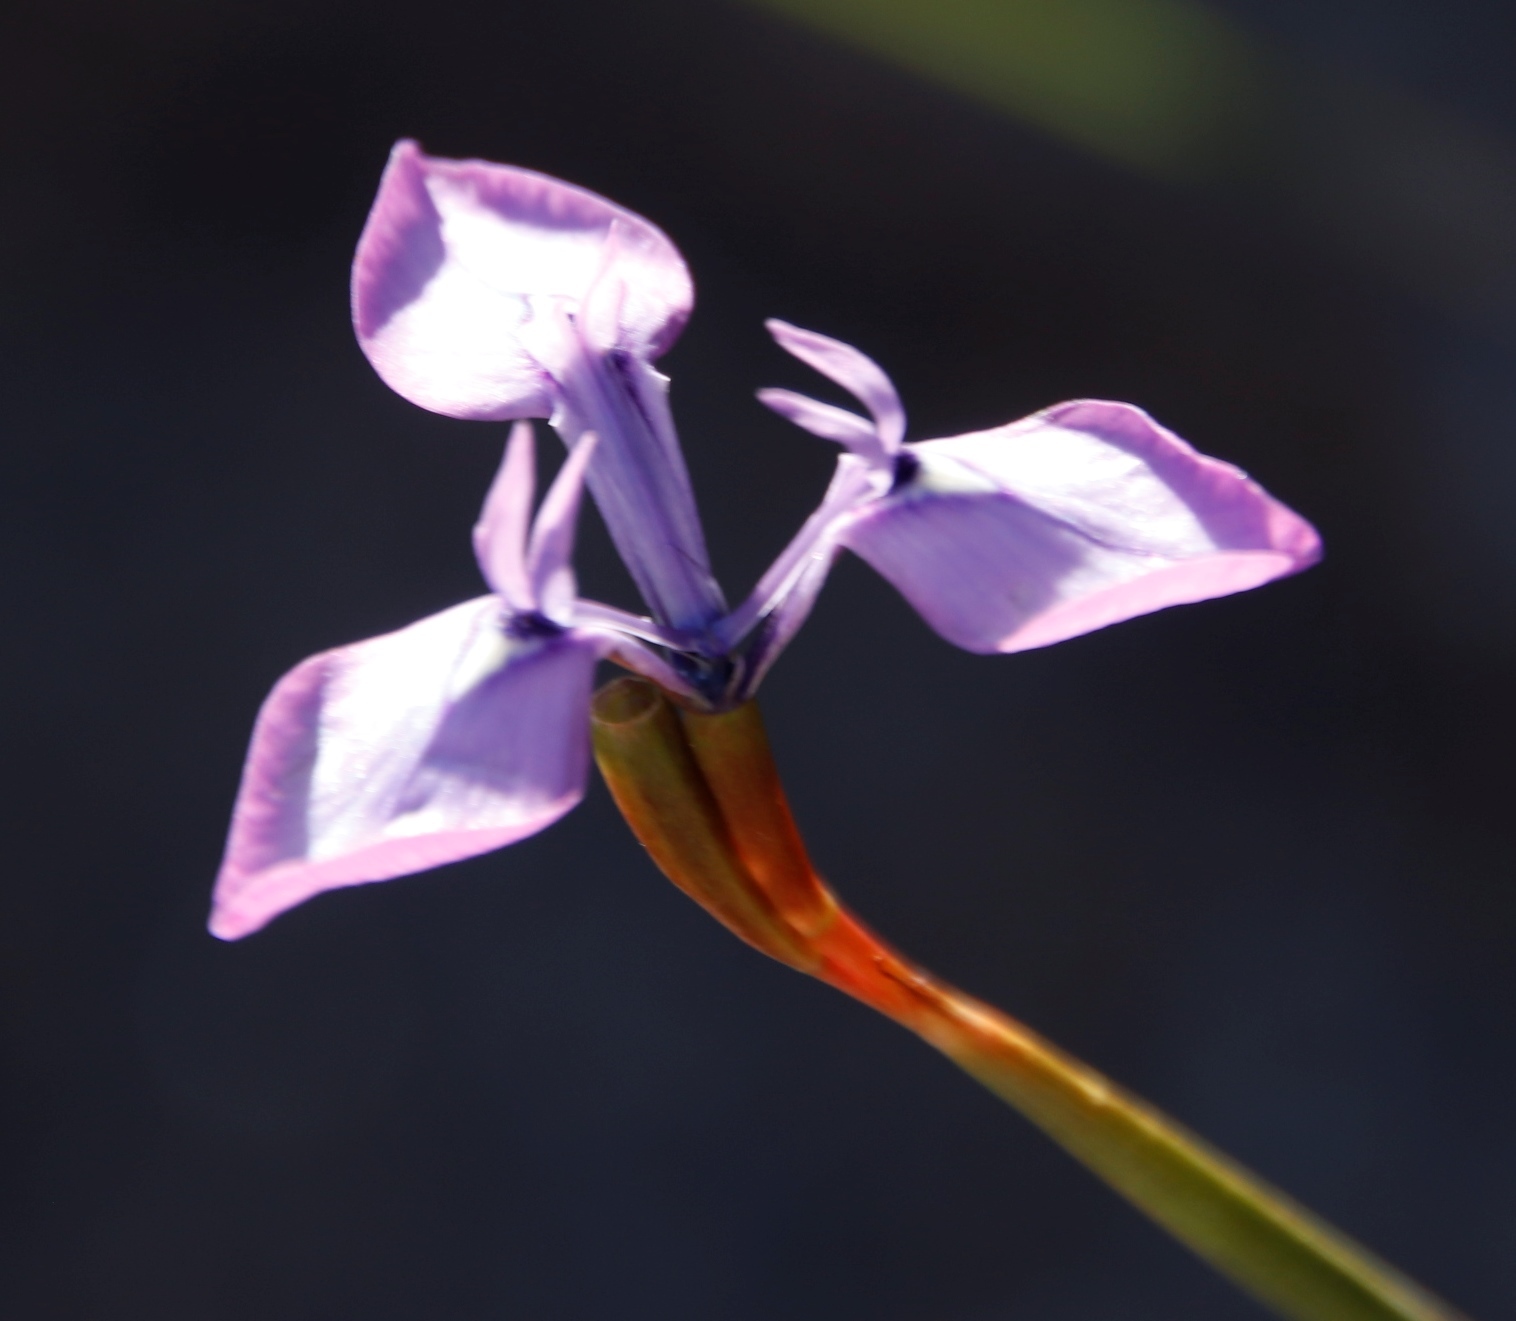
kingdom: Plantae
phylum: Tracheophyta
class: Liliopsida
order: Asparagales
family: Iridaceae
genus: Moraea
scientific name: Moraea tripetala
